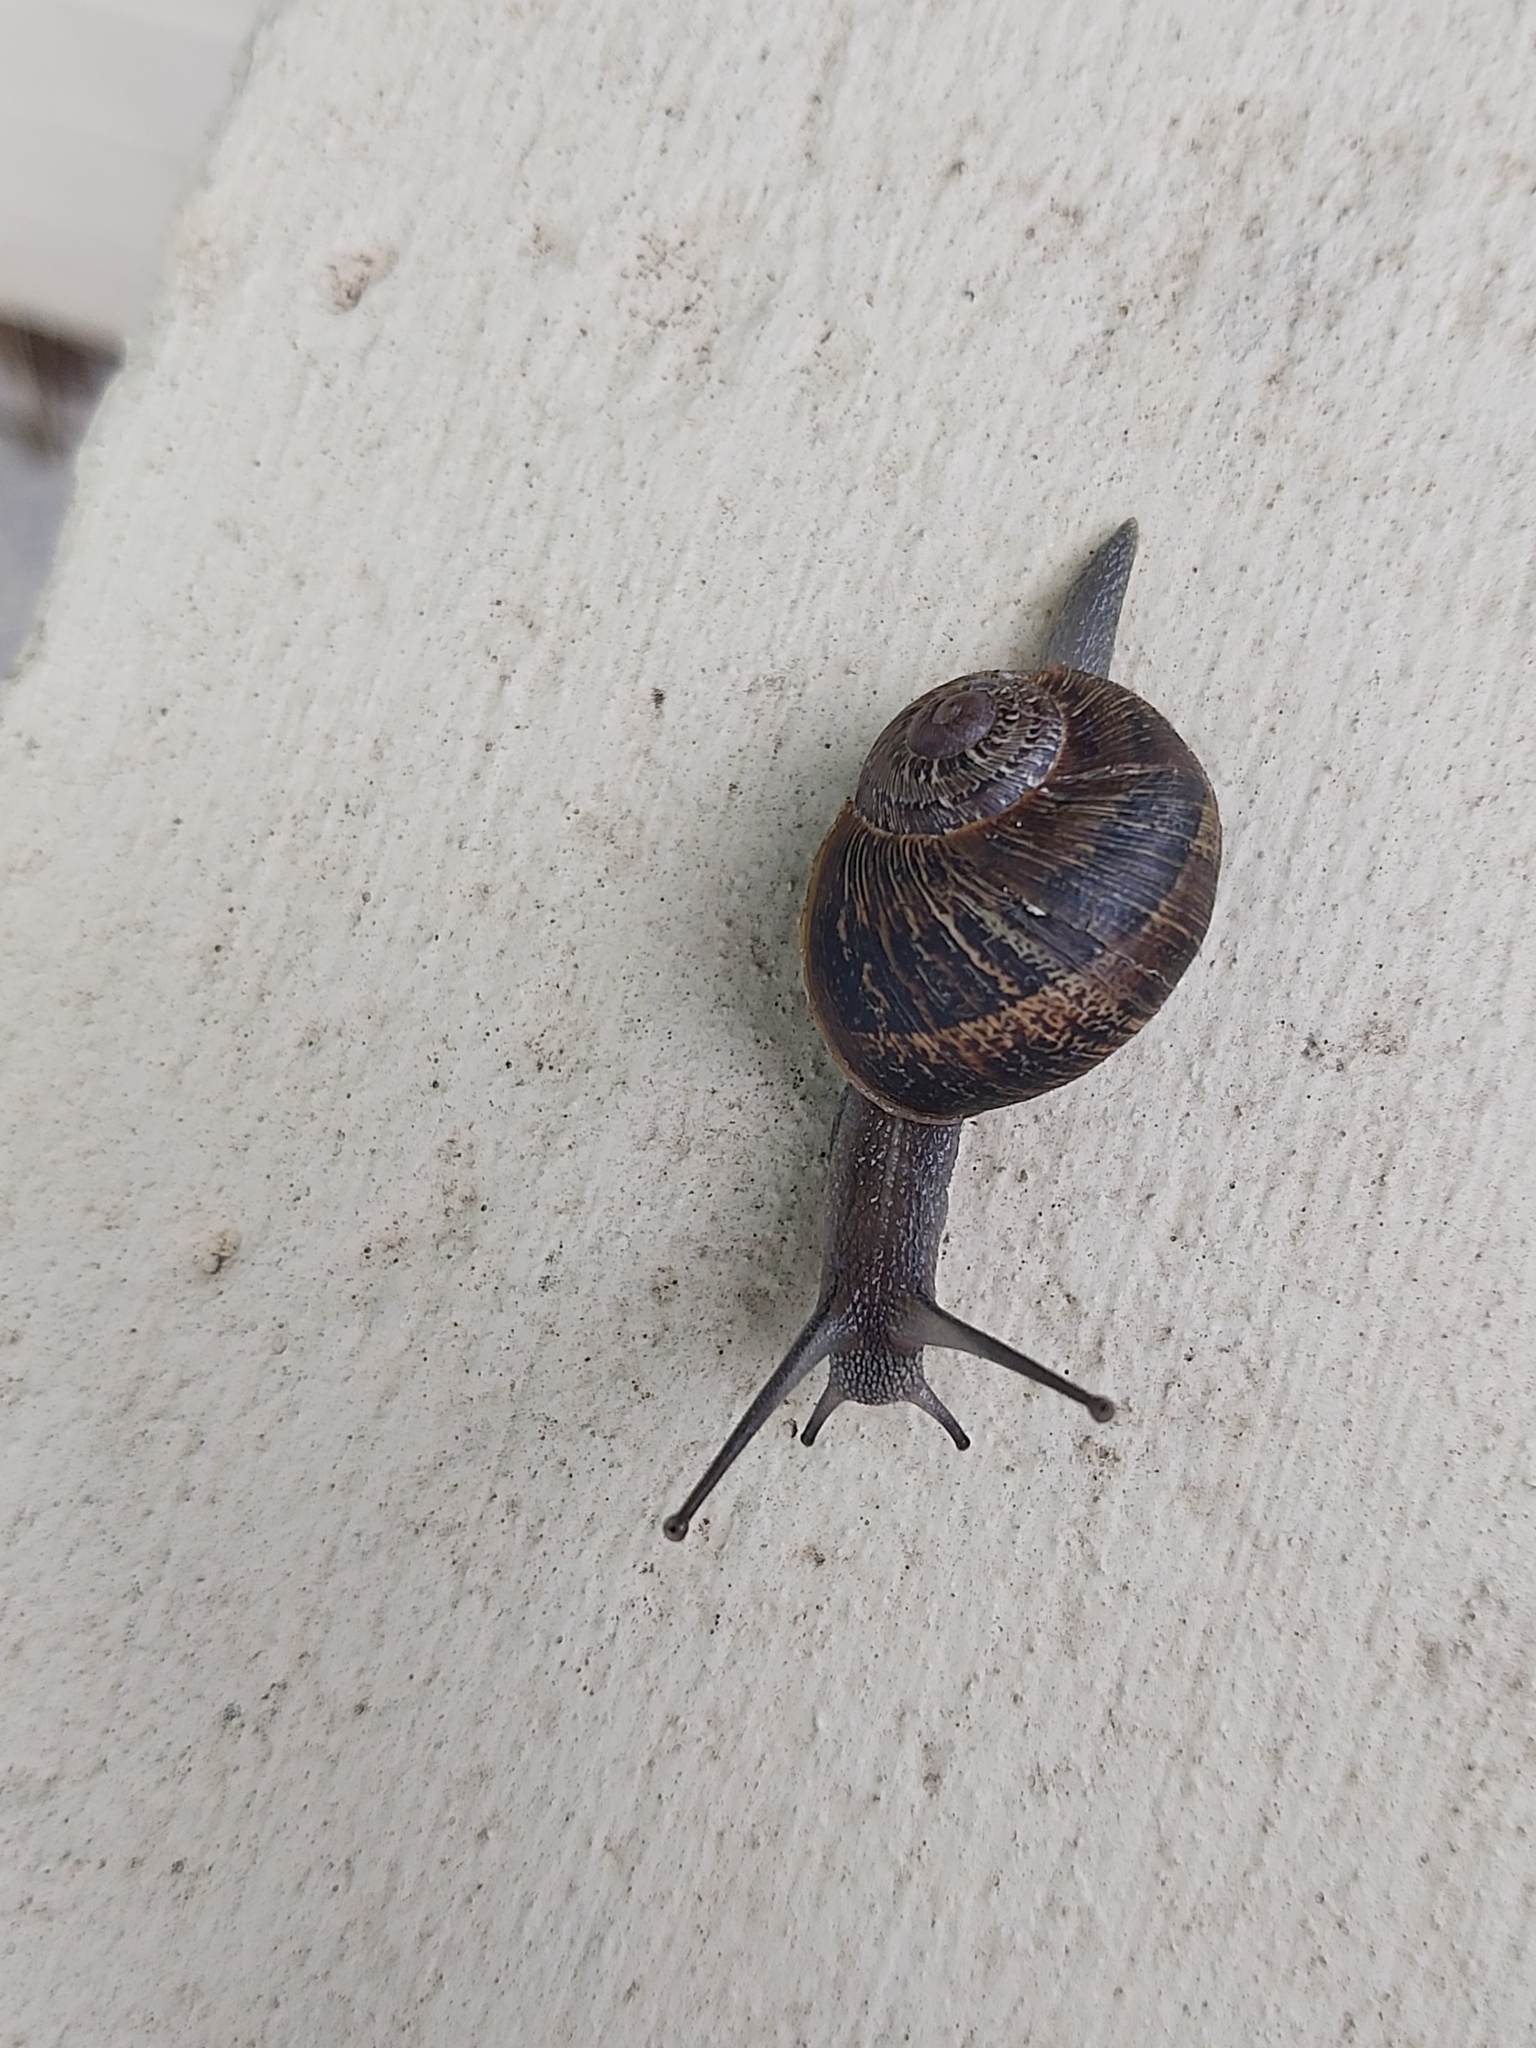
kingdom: Animalia
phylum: Mollusca
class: Gastropoda
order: Stylommatophora
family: Helicidae
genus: Cornu
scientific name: Cornu aspersum
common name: Brown garden snail
